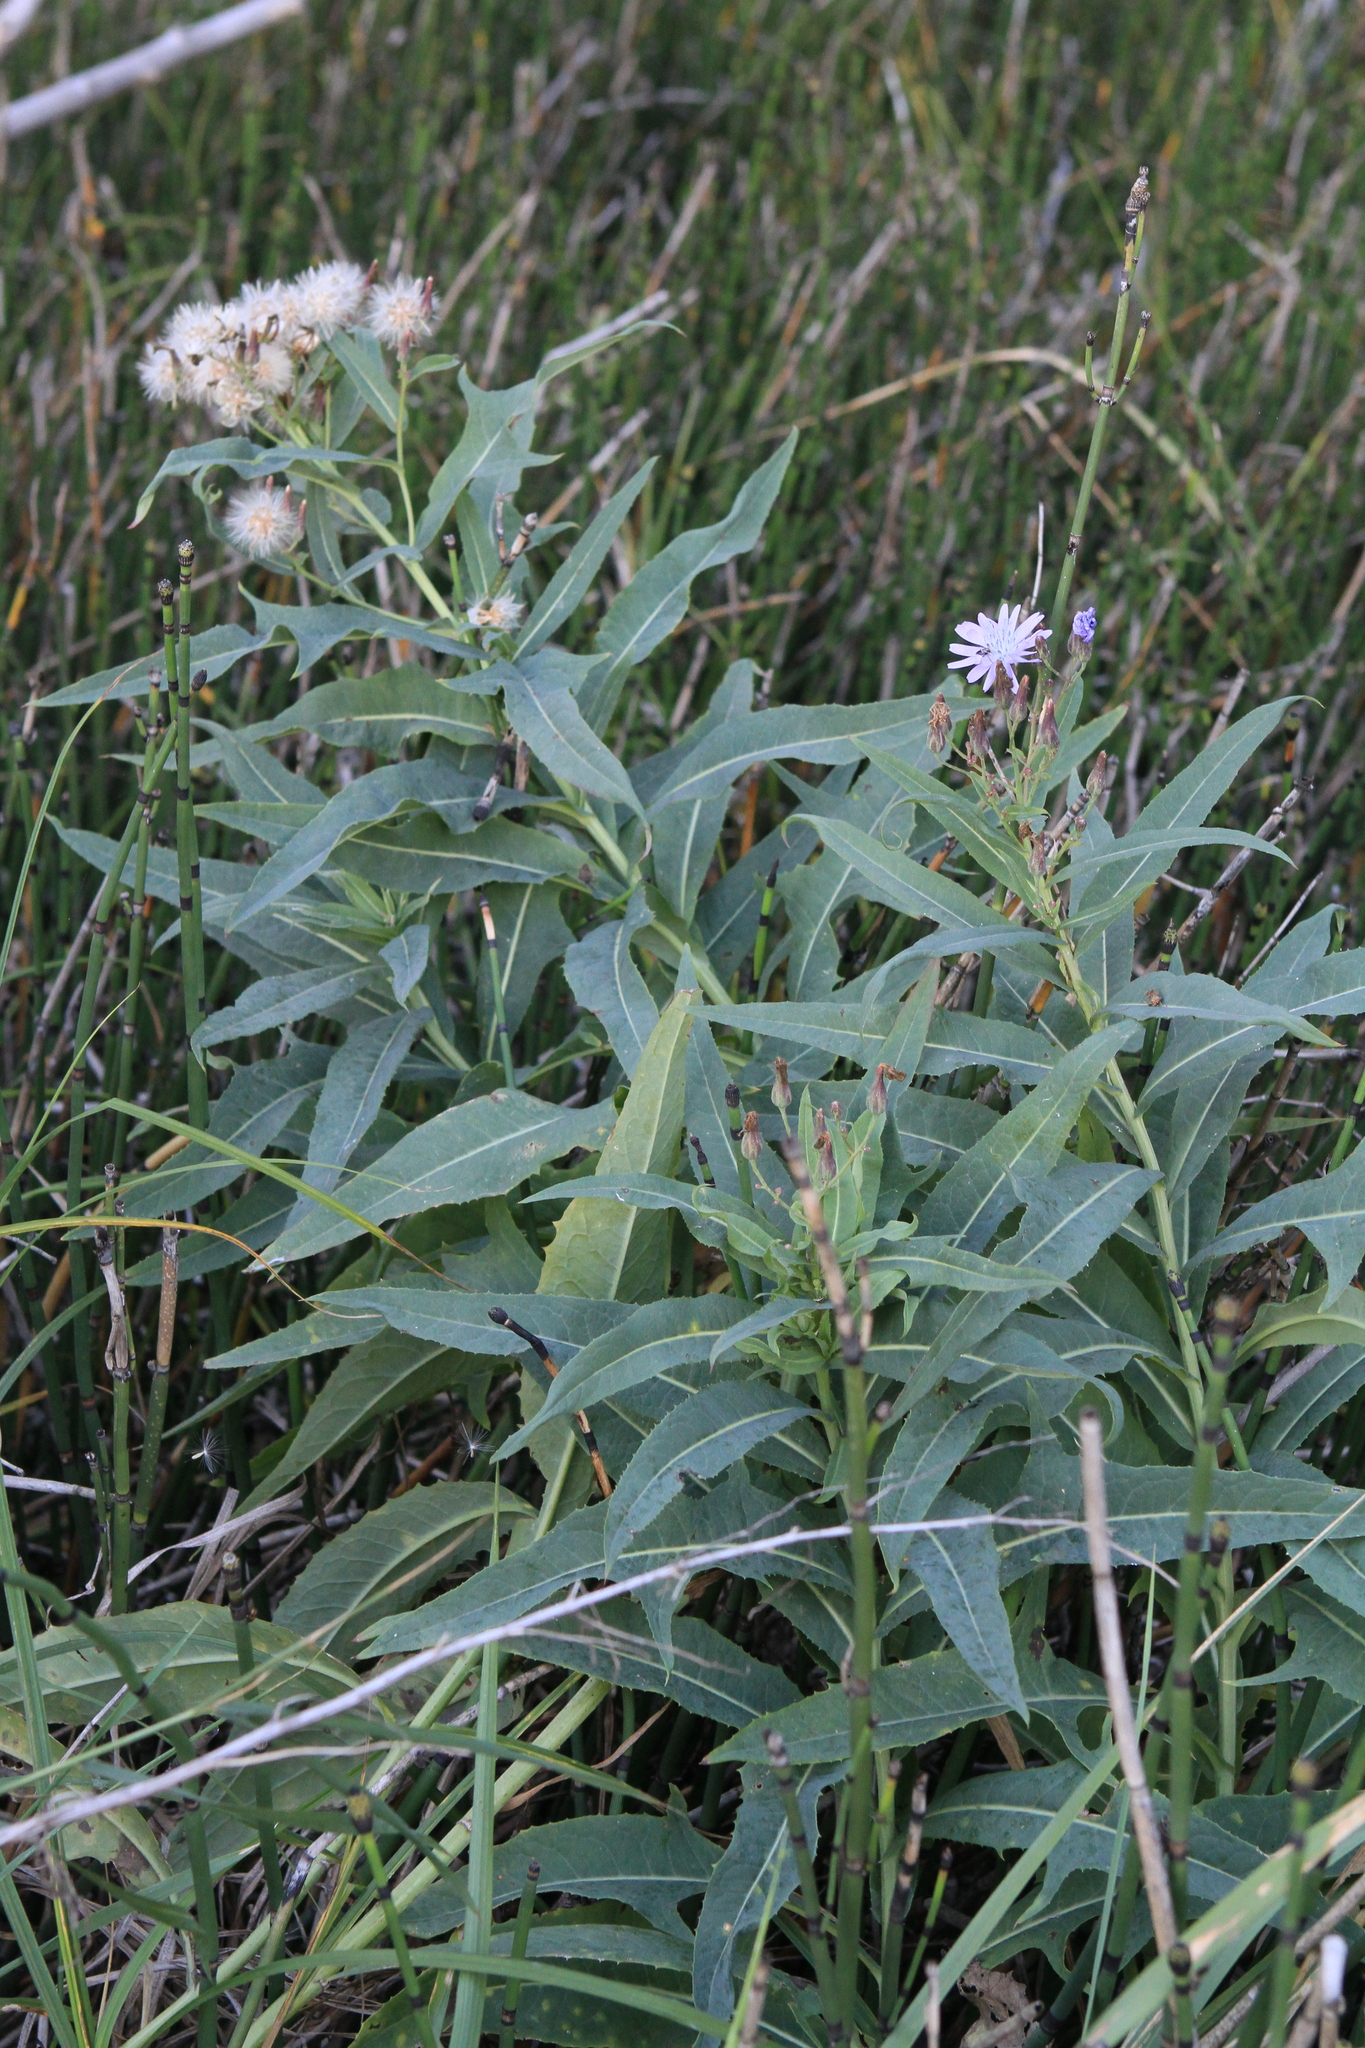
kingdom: Plantae
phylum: Tracheophyta
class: Magnoliopsida
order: Asterales
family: Asteraceae
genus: Lactuca
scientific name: Lactuca tatarica
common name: Blue lettuce
